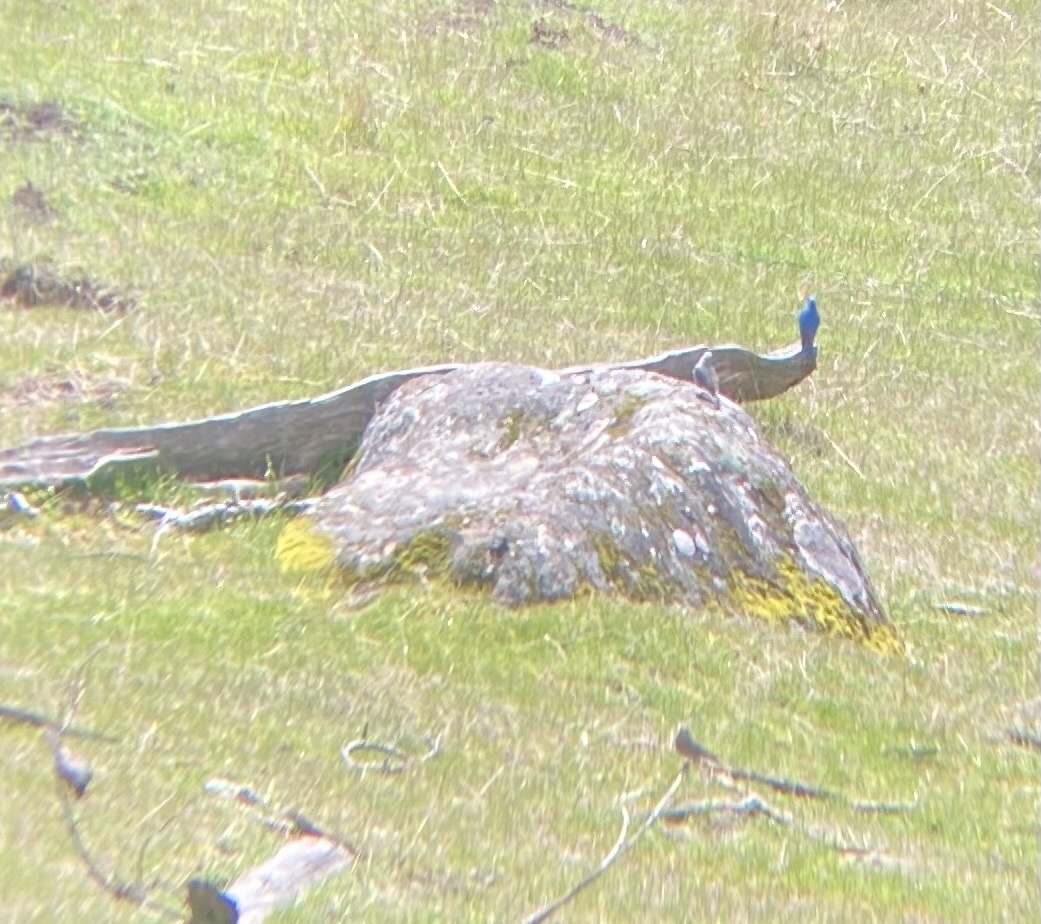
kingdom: Animalia
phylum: Chordata
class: Aves
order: Passeriformes
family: Turdidae
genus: Sialia
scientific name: Sialia currucoides
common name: Mountain bluebird
